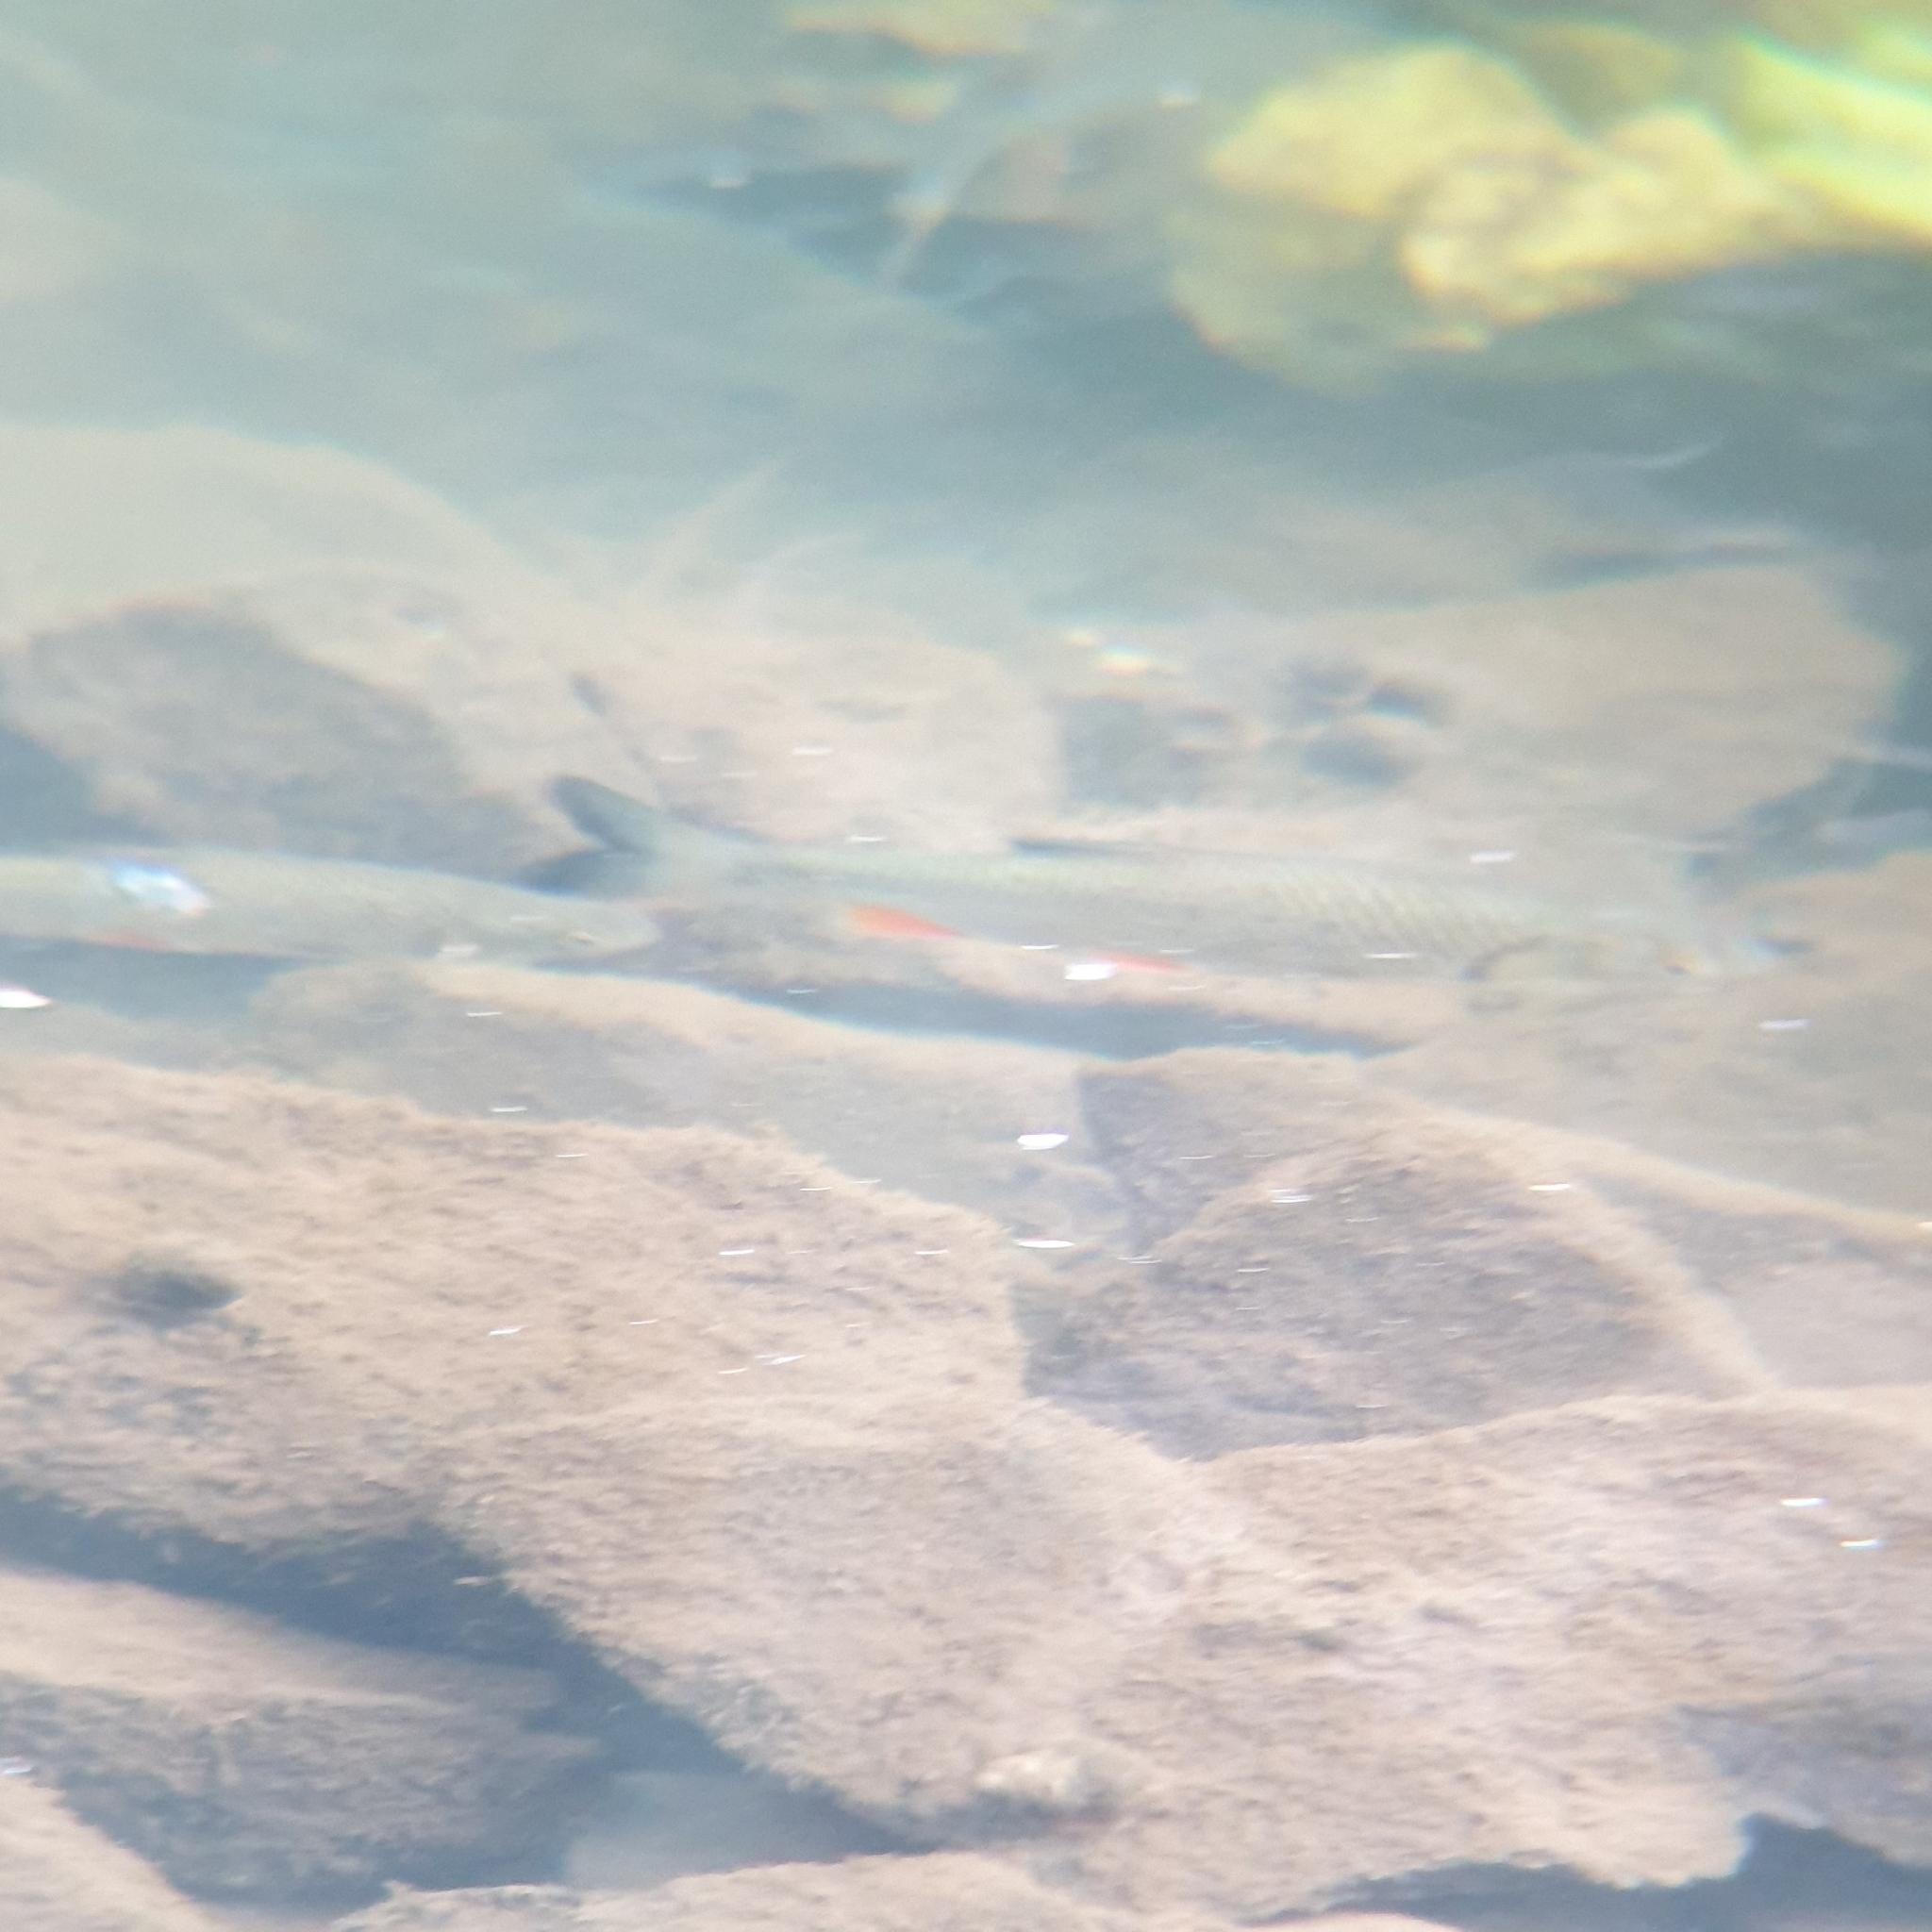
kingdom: Animalia
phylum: Chordata
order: Cypriniformes
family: Cyprinidae
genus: Squalius
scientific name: Squalius cephalus
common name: Chub
